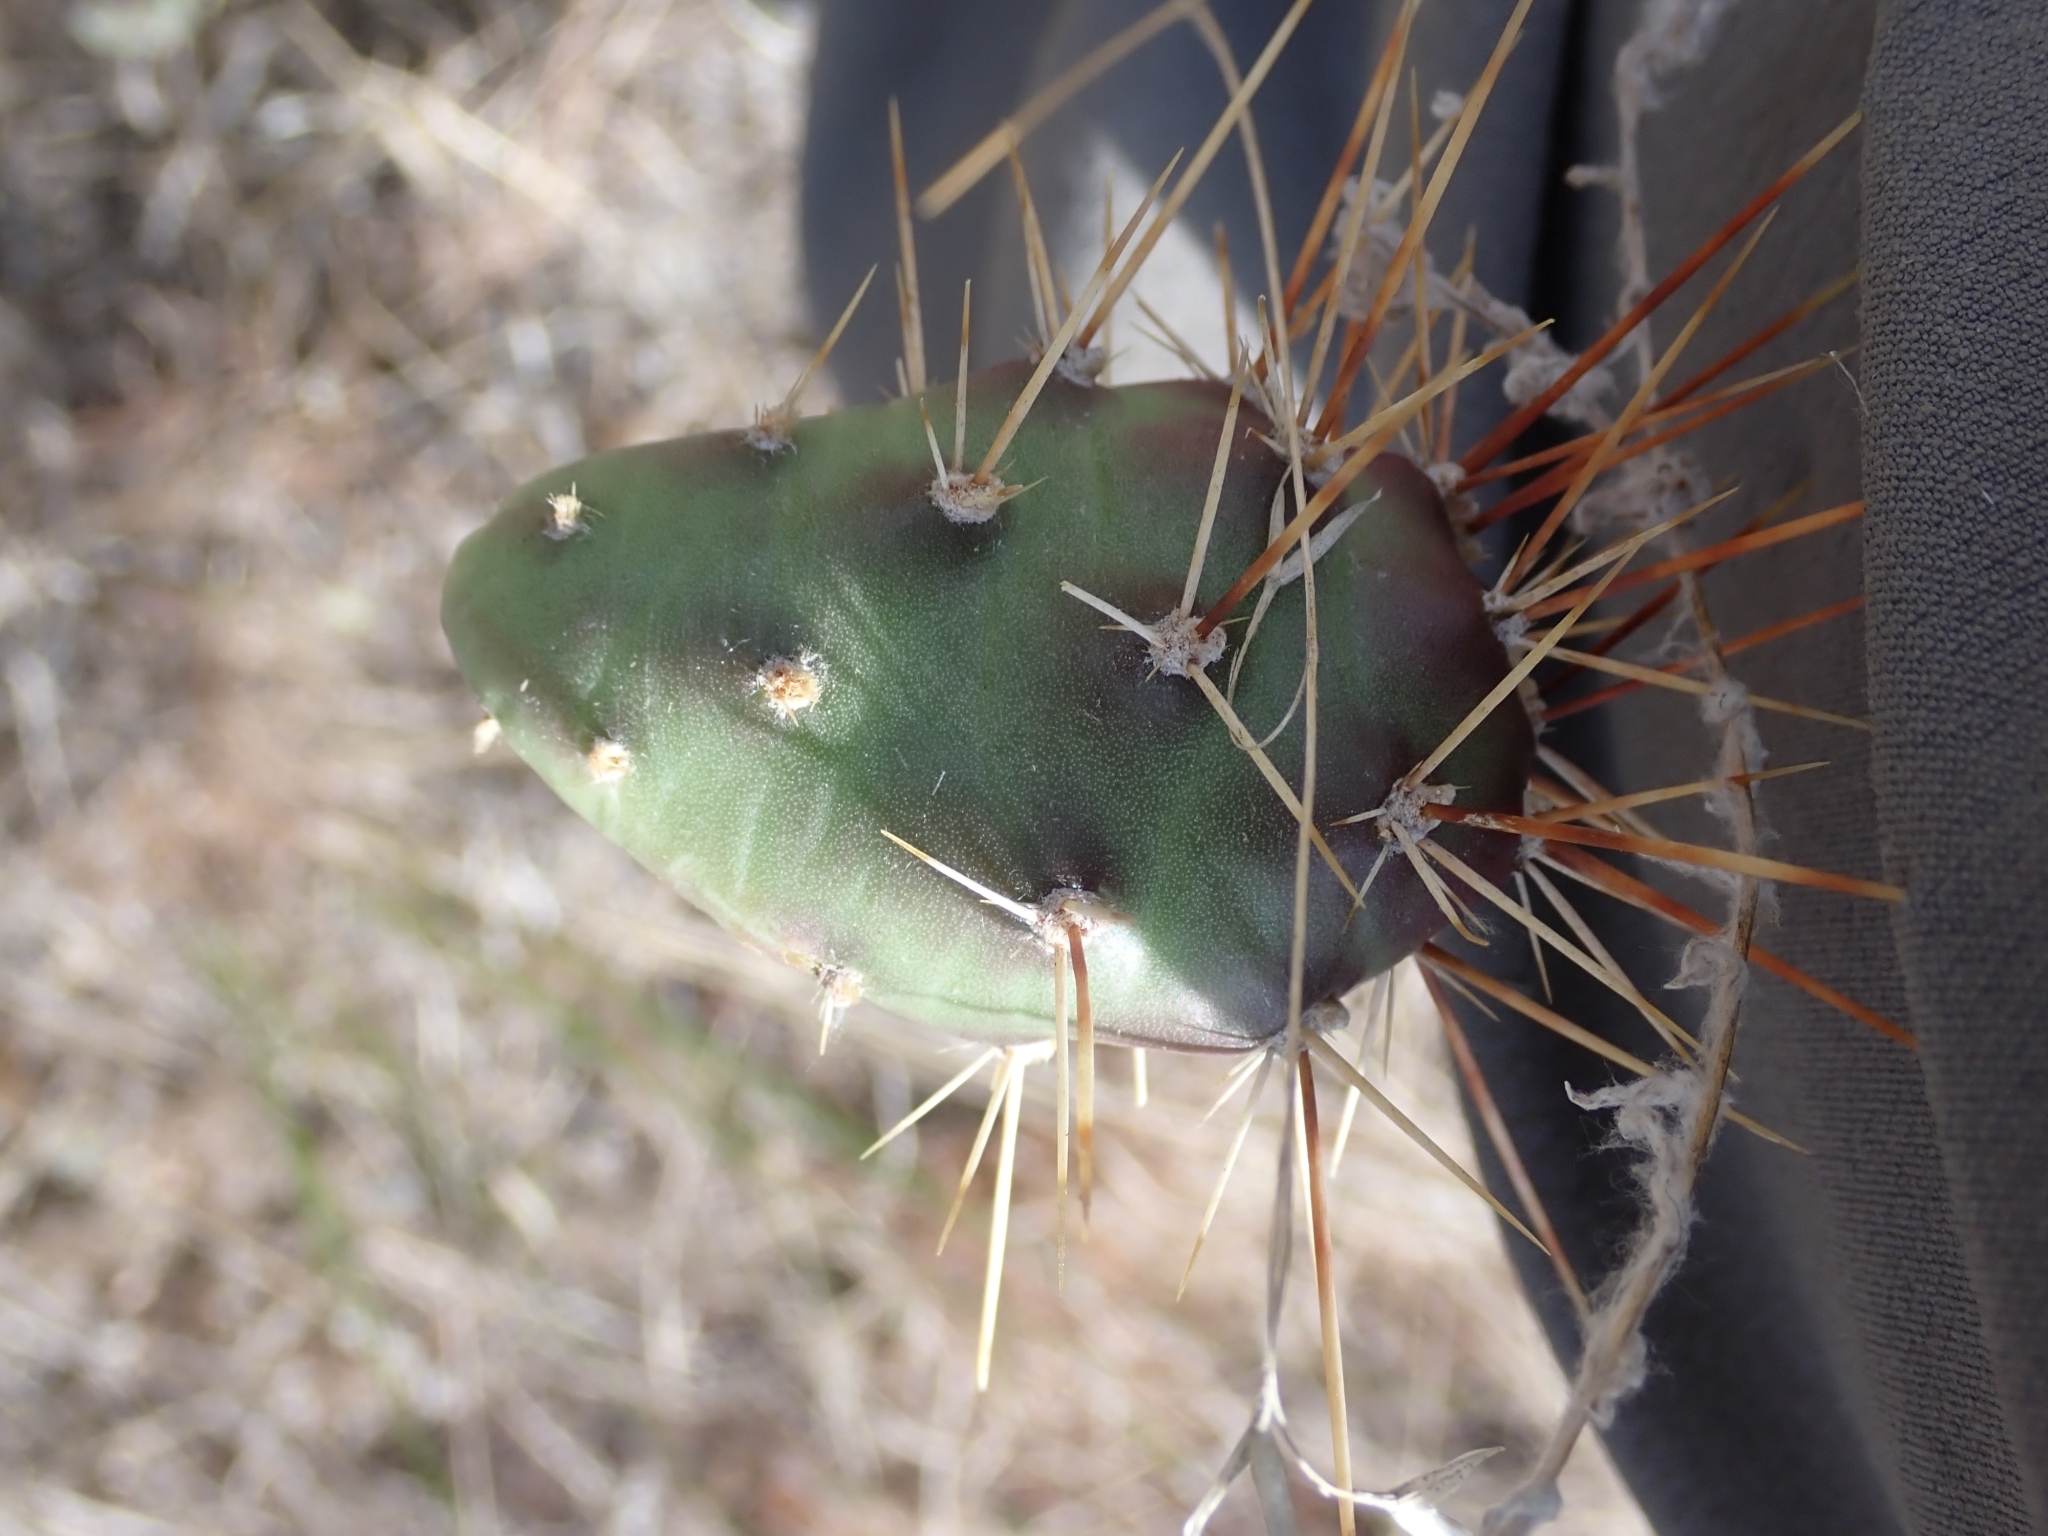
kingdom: Plantae
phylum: Tracheophyta
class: Magnoliopsida
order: Caryophyllales
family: Cactaceae
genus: Opuntia
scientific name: Opuntia fragilis
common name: Brittle cactus
